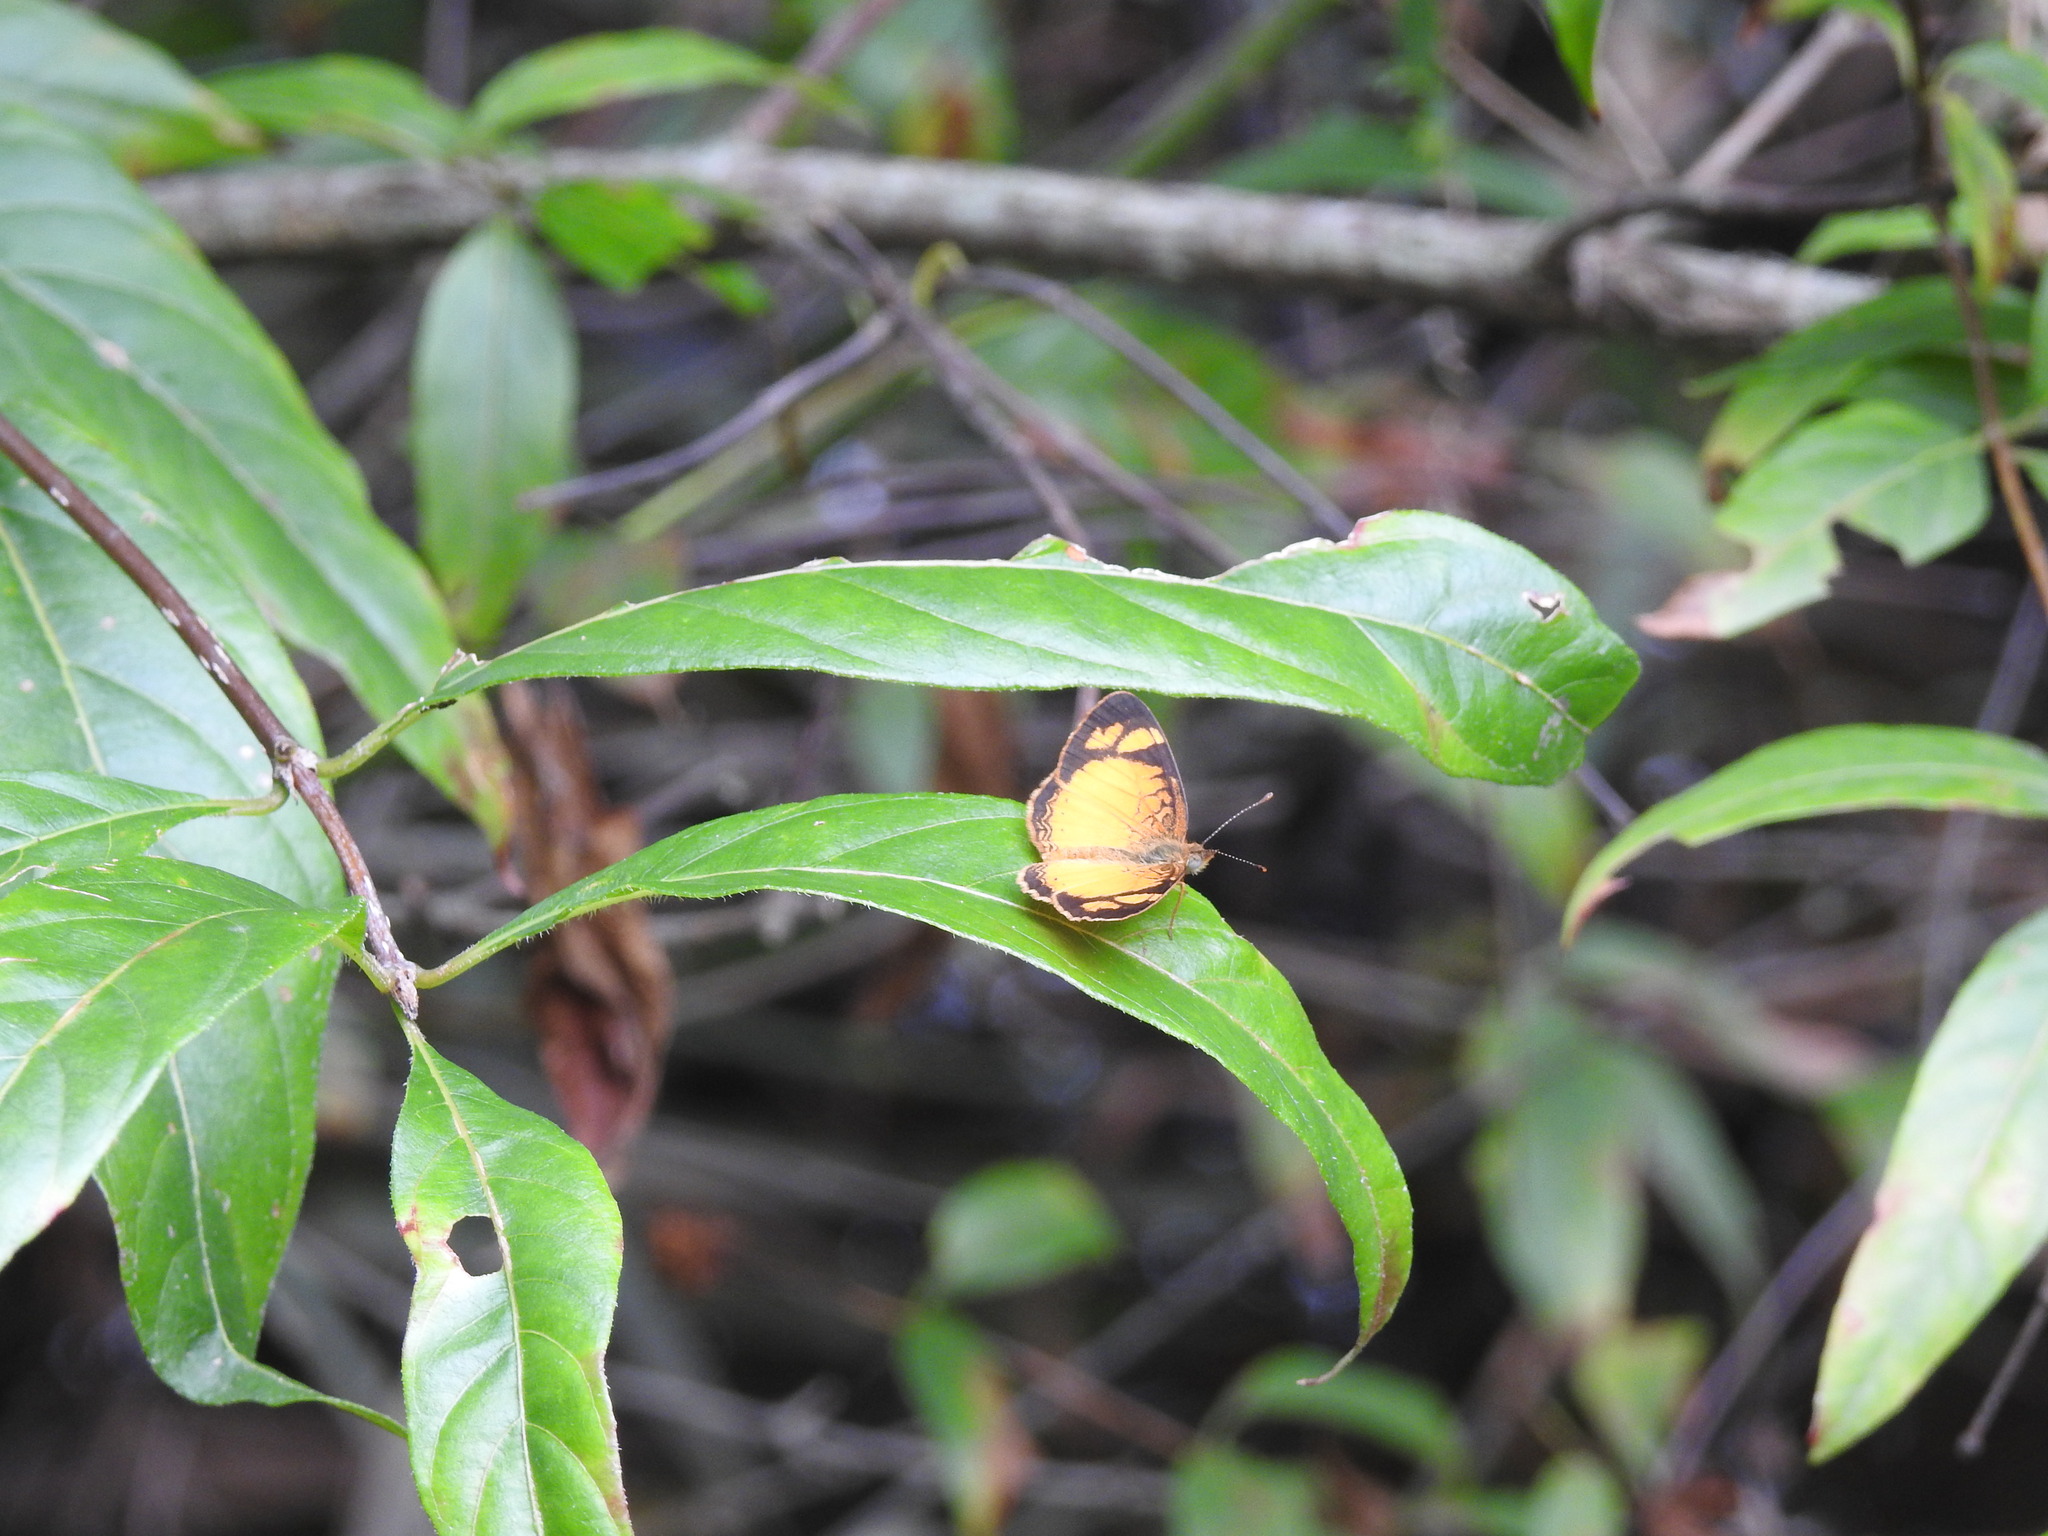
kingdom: Animalia
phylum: Arthropoda
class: Insecta
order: Lepidoptera
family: Nymphalidae
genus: Tegosa
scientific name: Tegosa claudina
